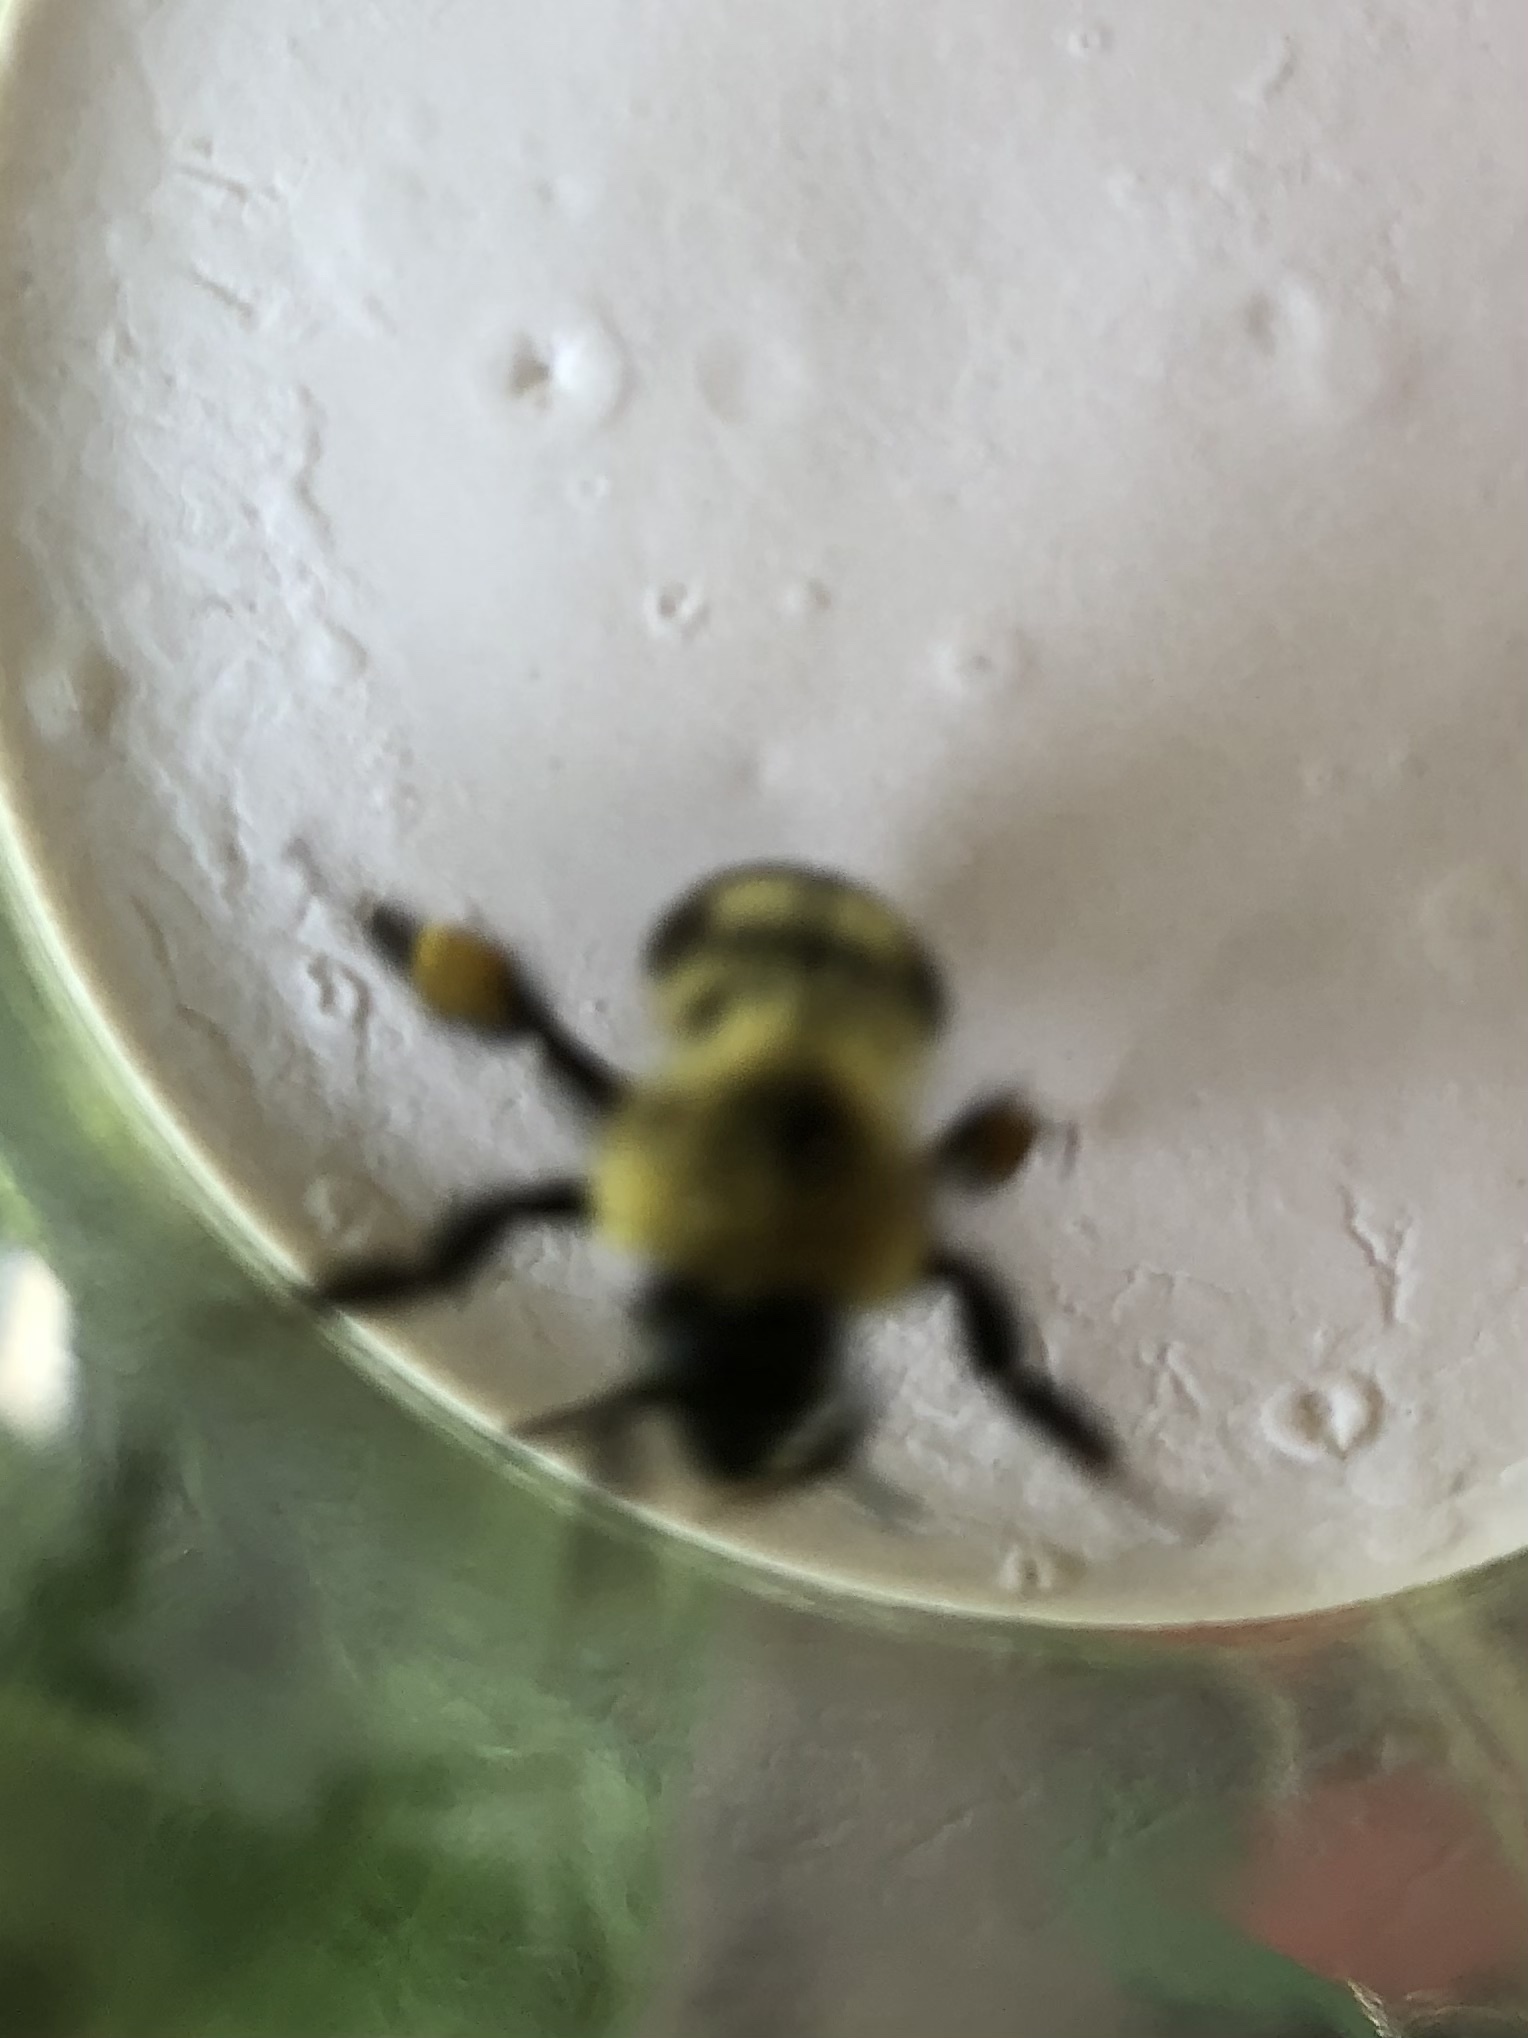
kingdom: Animalia
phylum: Arthropoda
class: Insecta
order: Hymenoptera
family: Apidae
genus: Bombus
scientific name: Bombus bimaculatus
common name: Two-spotted bumble bee
